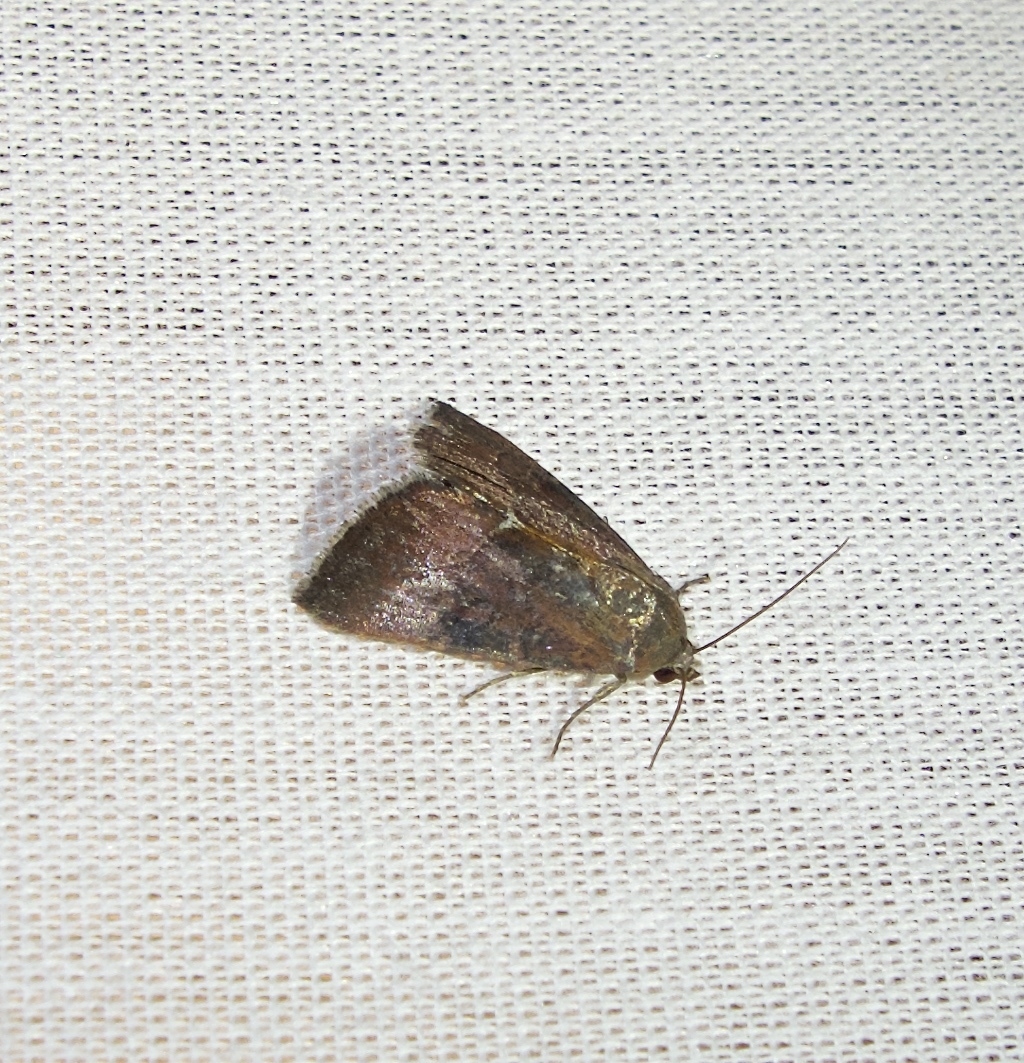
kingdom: Animalia
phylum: Arthropoda
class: Insecta
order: Lepidoptera
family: Noctuidae
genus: Galgula
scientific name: Galgula partita
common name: Wedgeling
